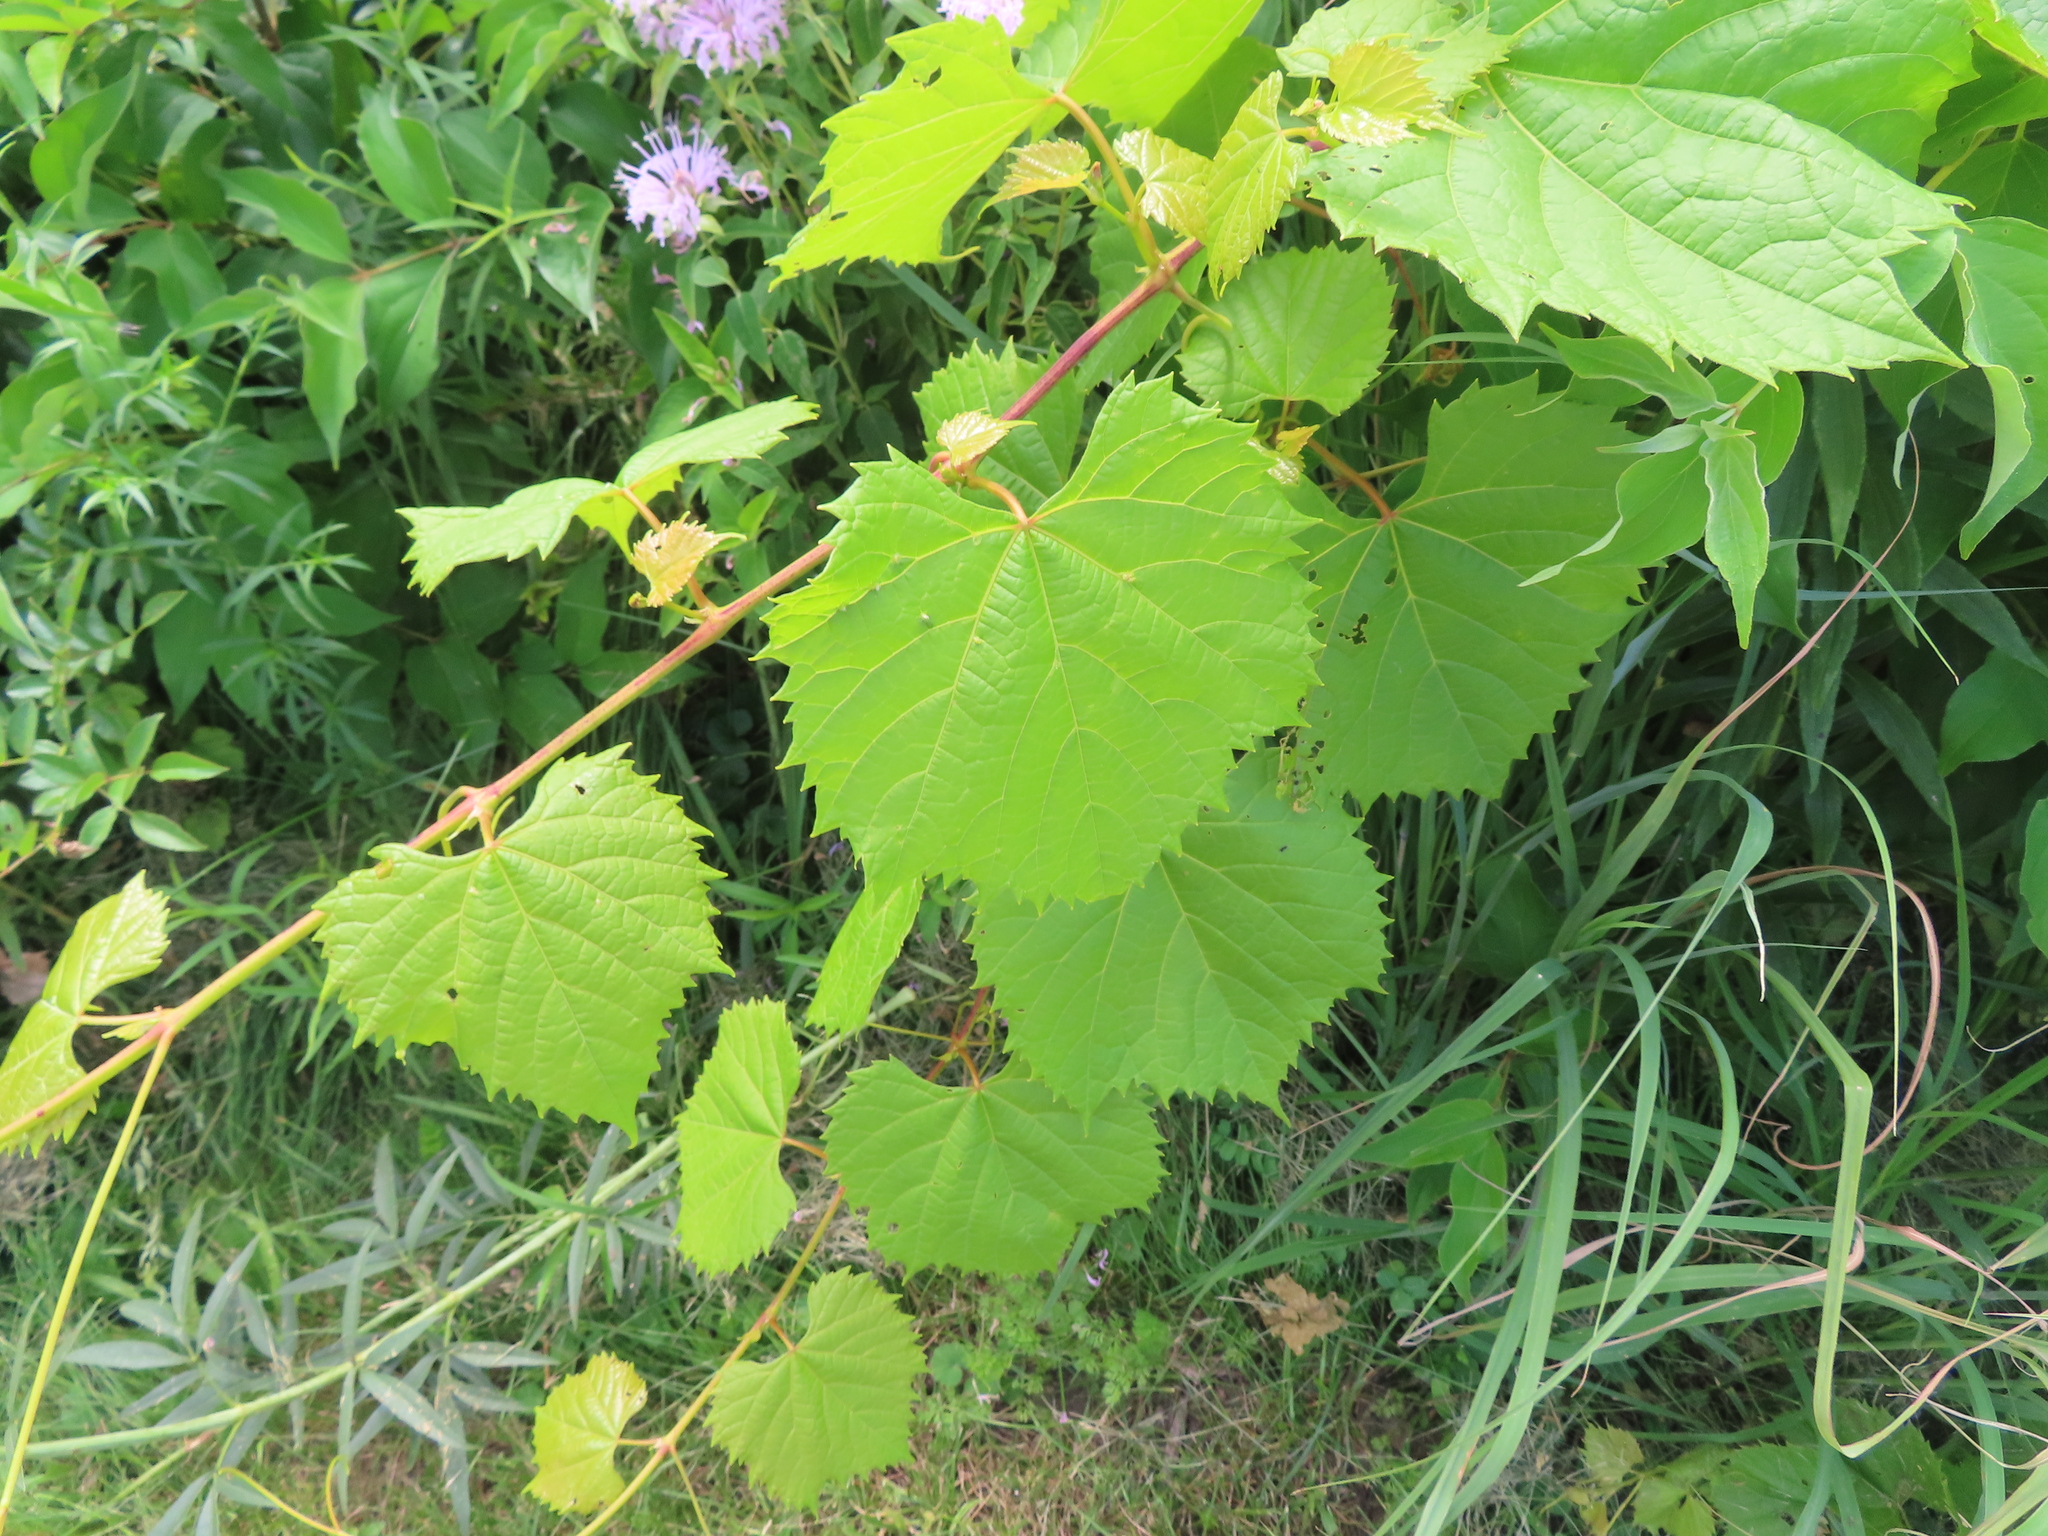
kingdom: Plantae
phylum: Tracheophyta
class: Magnoliopsida
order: Vitales
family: Vitaceae
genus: Vitis
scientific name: Vitis riparia
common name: Frost grape
